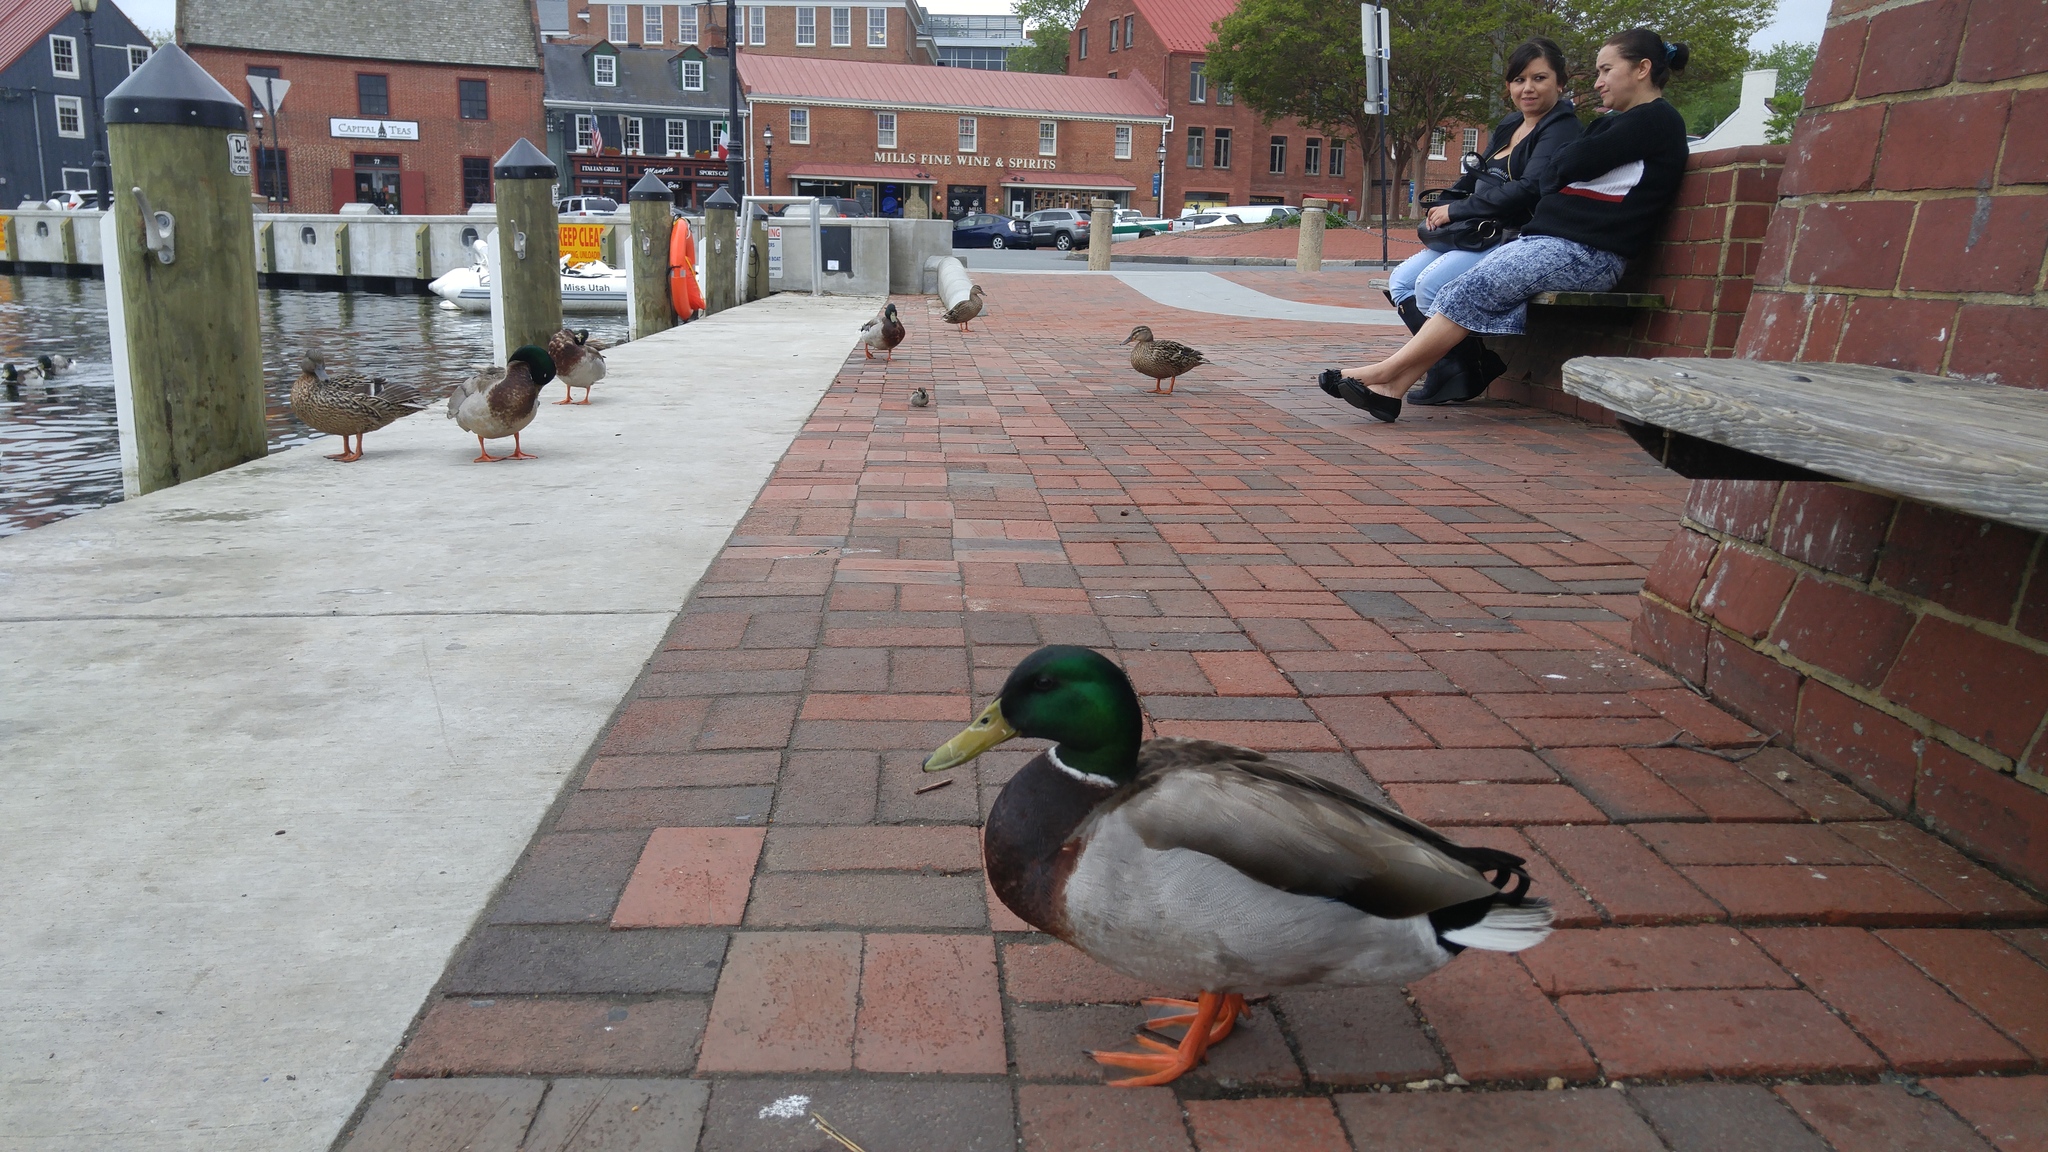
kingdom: Animalia
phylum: Chordata
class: Aves
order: Anseriformes
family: Anatidae
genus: Anas
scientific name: Anas platyrhynchos
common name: Mallard
